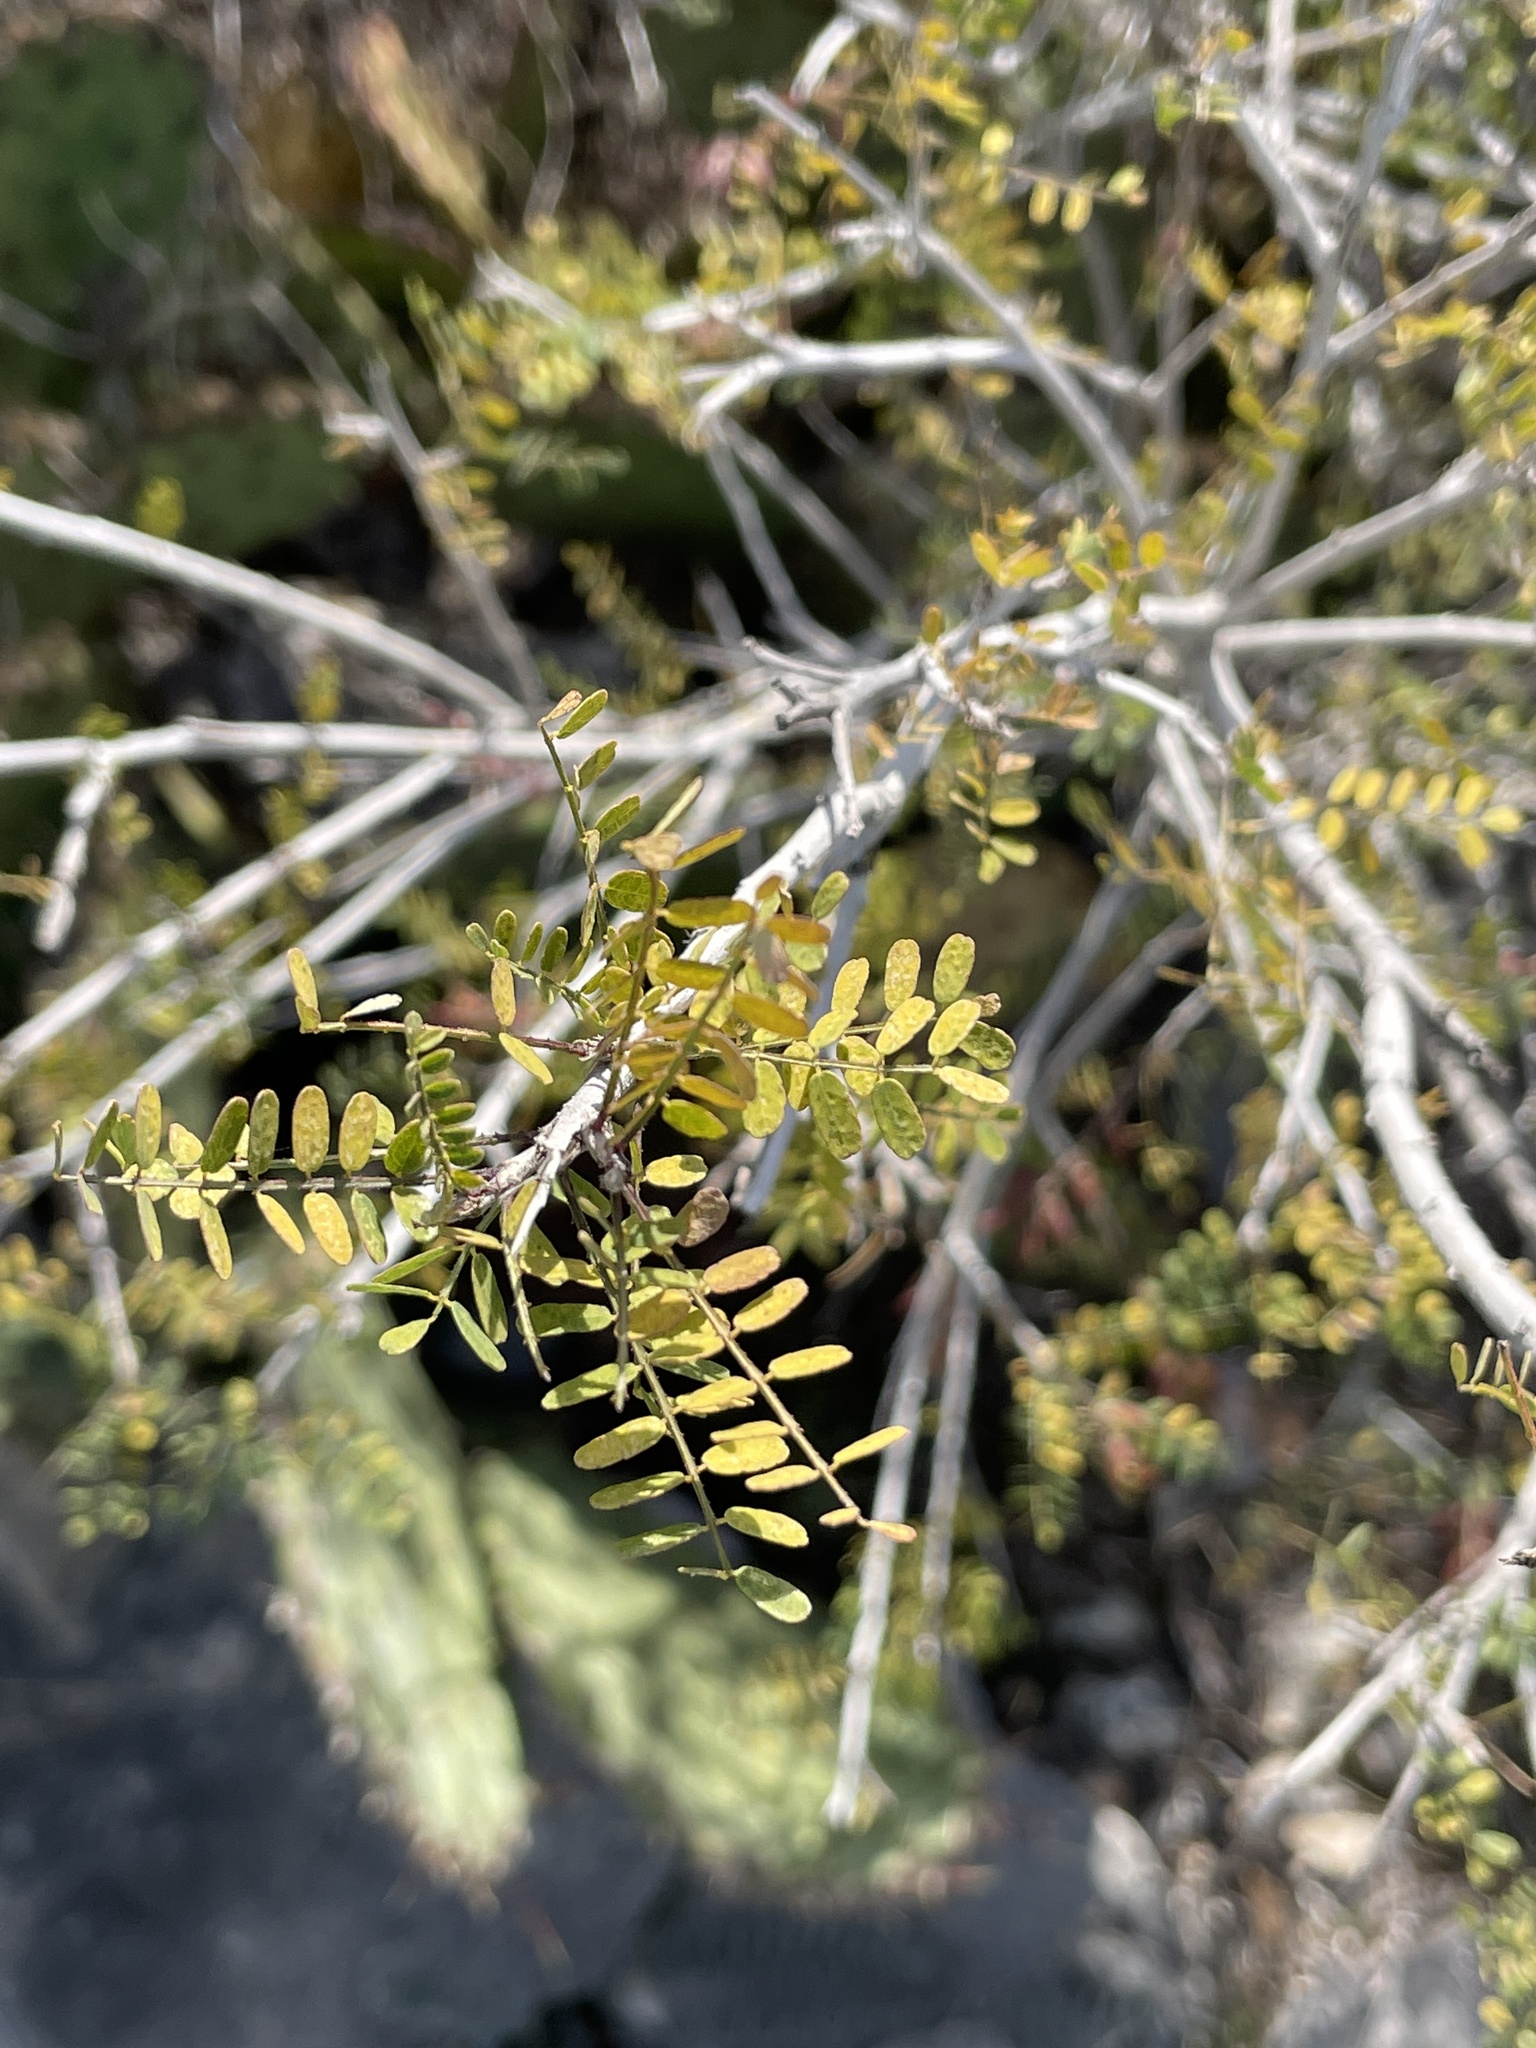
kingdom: Plantae
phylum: Tracheophyta
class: Magnoliopsida
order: Fabales
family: Fabaceae
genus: Eysenhardtia
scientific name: Eysenhardtia texana
